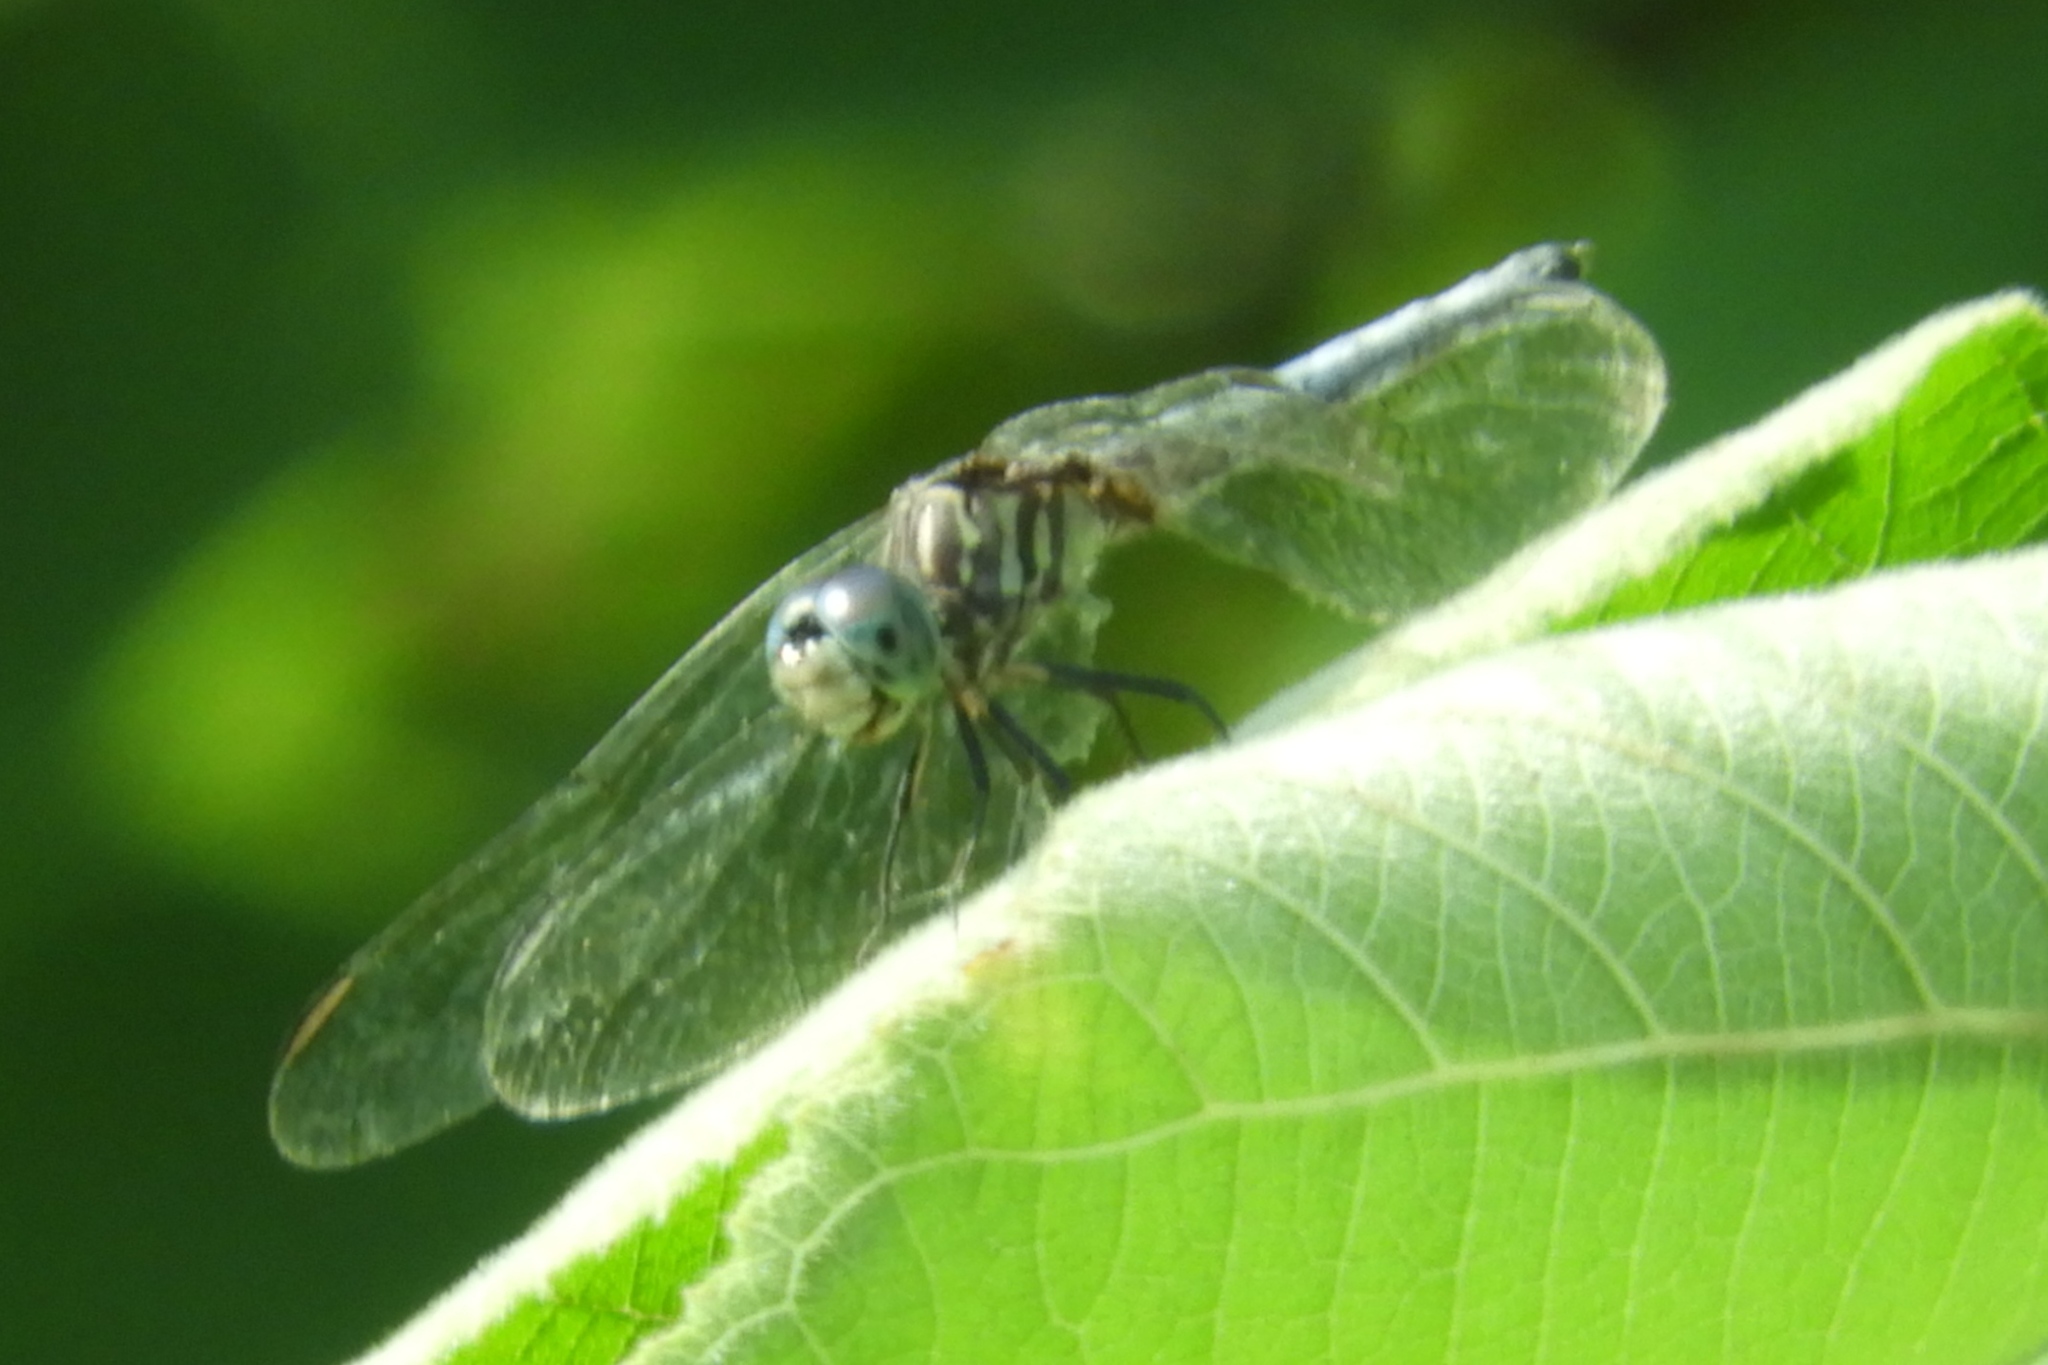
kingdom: Animalia
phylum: Arthropoda
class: Insecta
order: Odonata
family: Libellulidae
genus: Pachydiplax
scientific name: Pachydiplax longipennis
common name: Blue dasher
